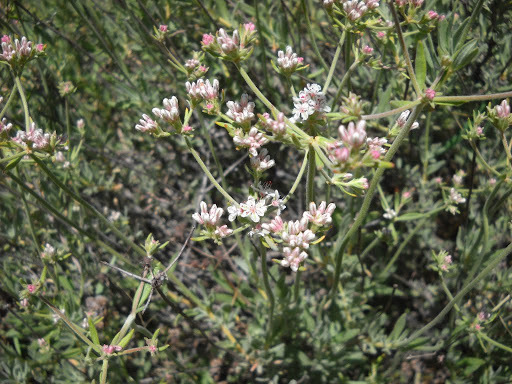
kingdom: Plantae
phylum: Tracheophyta
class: Magnoliopsida
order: Caryophyllales
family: Polygonaceae
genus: Eriogonum
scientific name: Eriogonum fasciculatum
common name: California wild buckwheat
